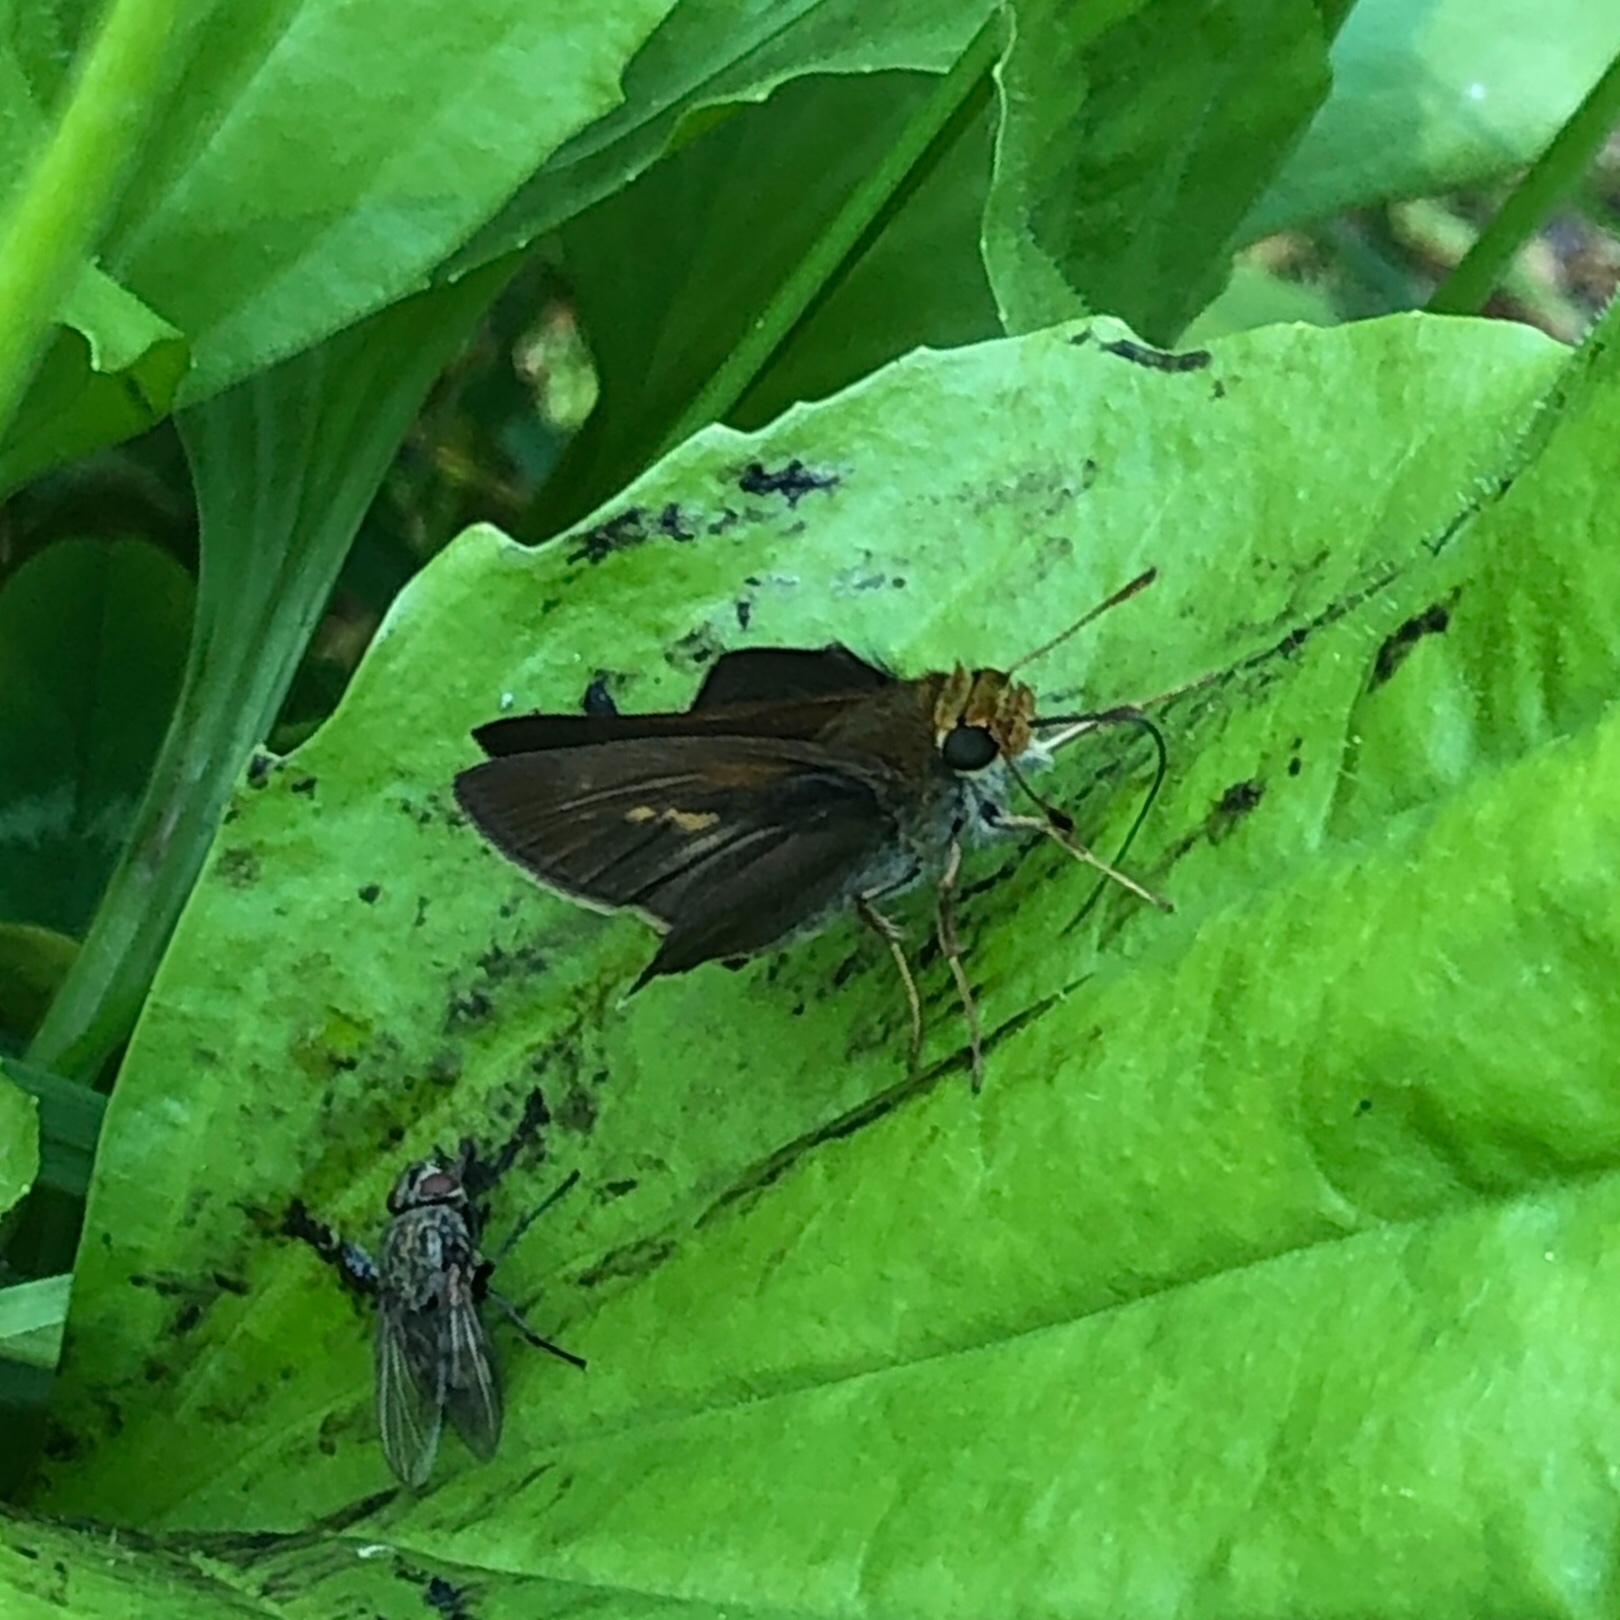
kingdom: Animalia
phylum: Arthropoda
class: Insecta
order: Lepidoptera
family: Hesperiidae
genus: Euphyes
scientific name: Euphyes vestris
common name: Dun skipper
